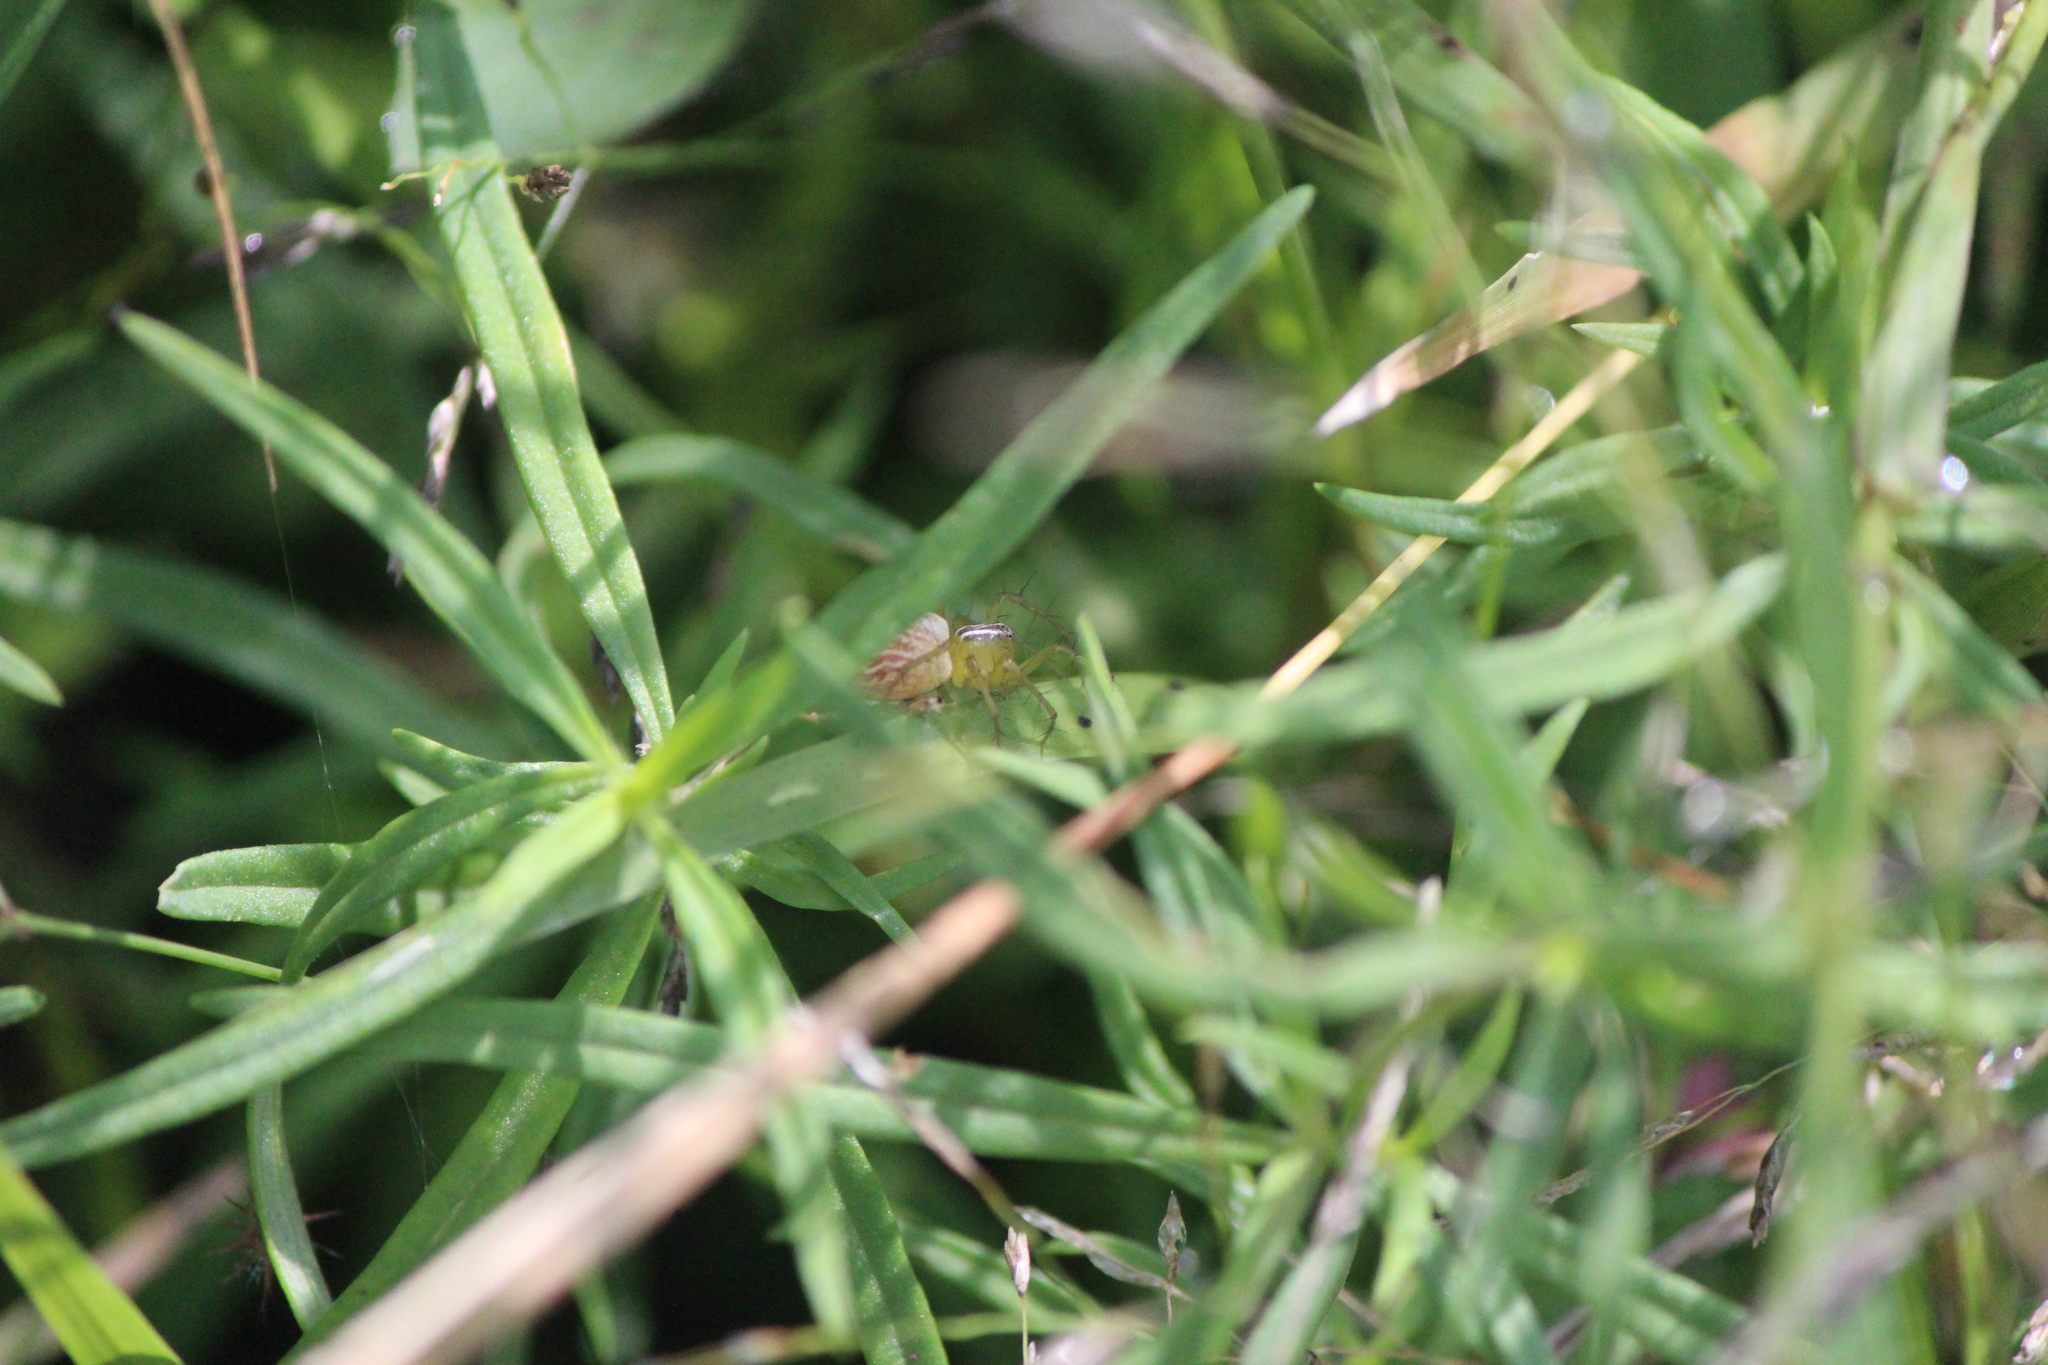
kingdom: Animalia
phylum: Arthropoda
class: Arachnida
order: Araneae
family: Oxyopidae
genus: Oxyopes
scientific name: Oxyopes salticus
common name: Lynx spiders
